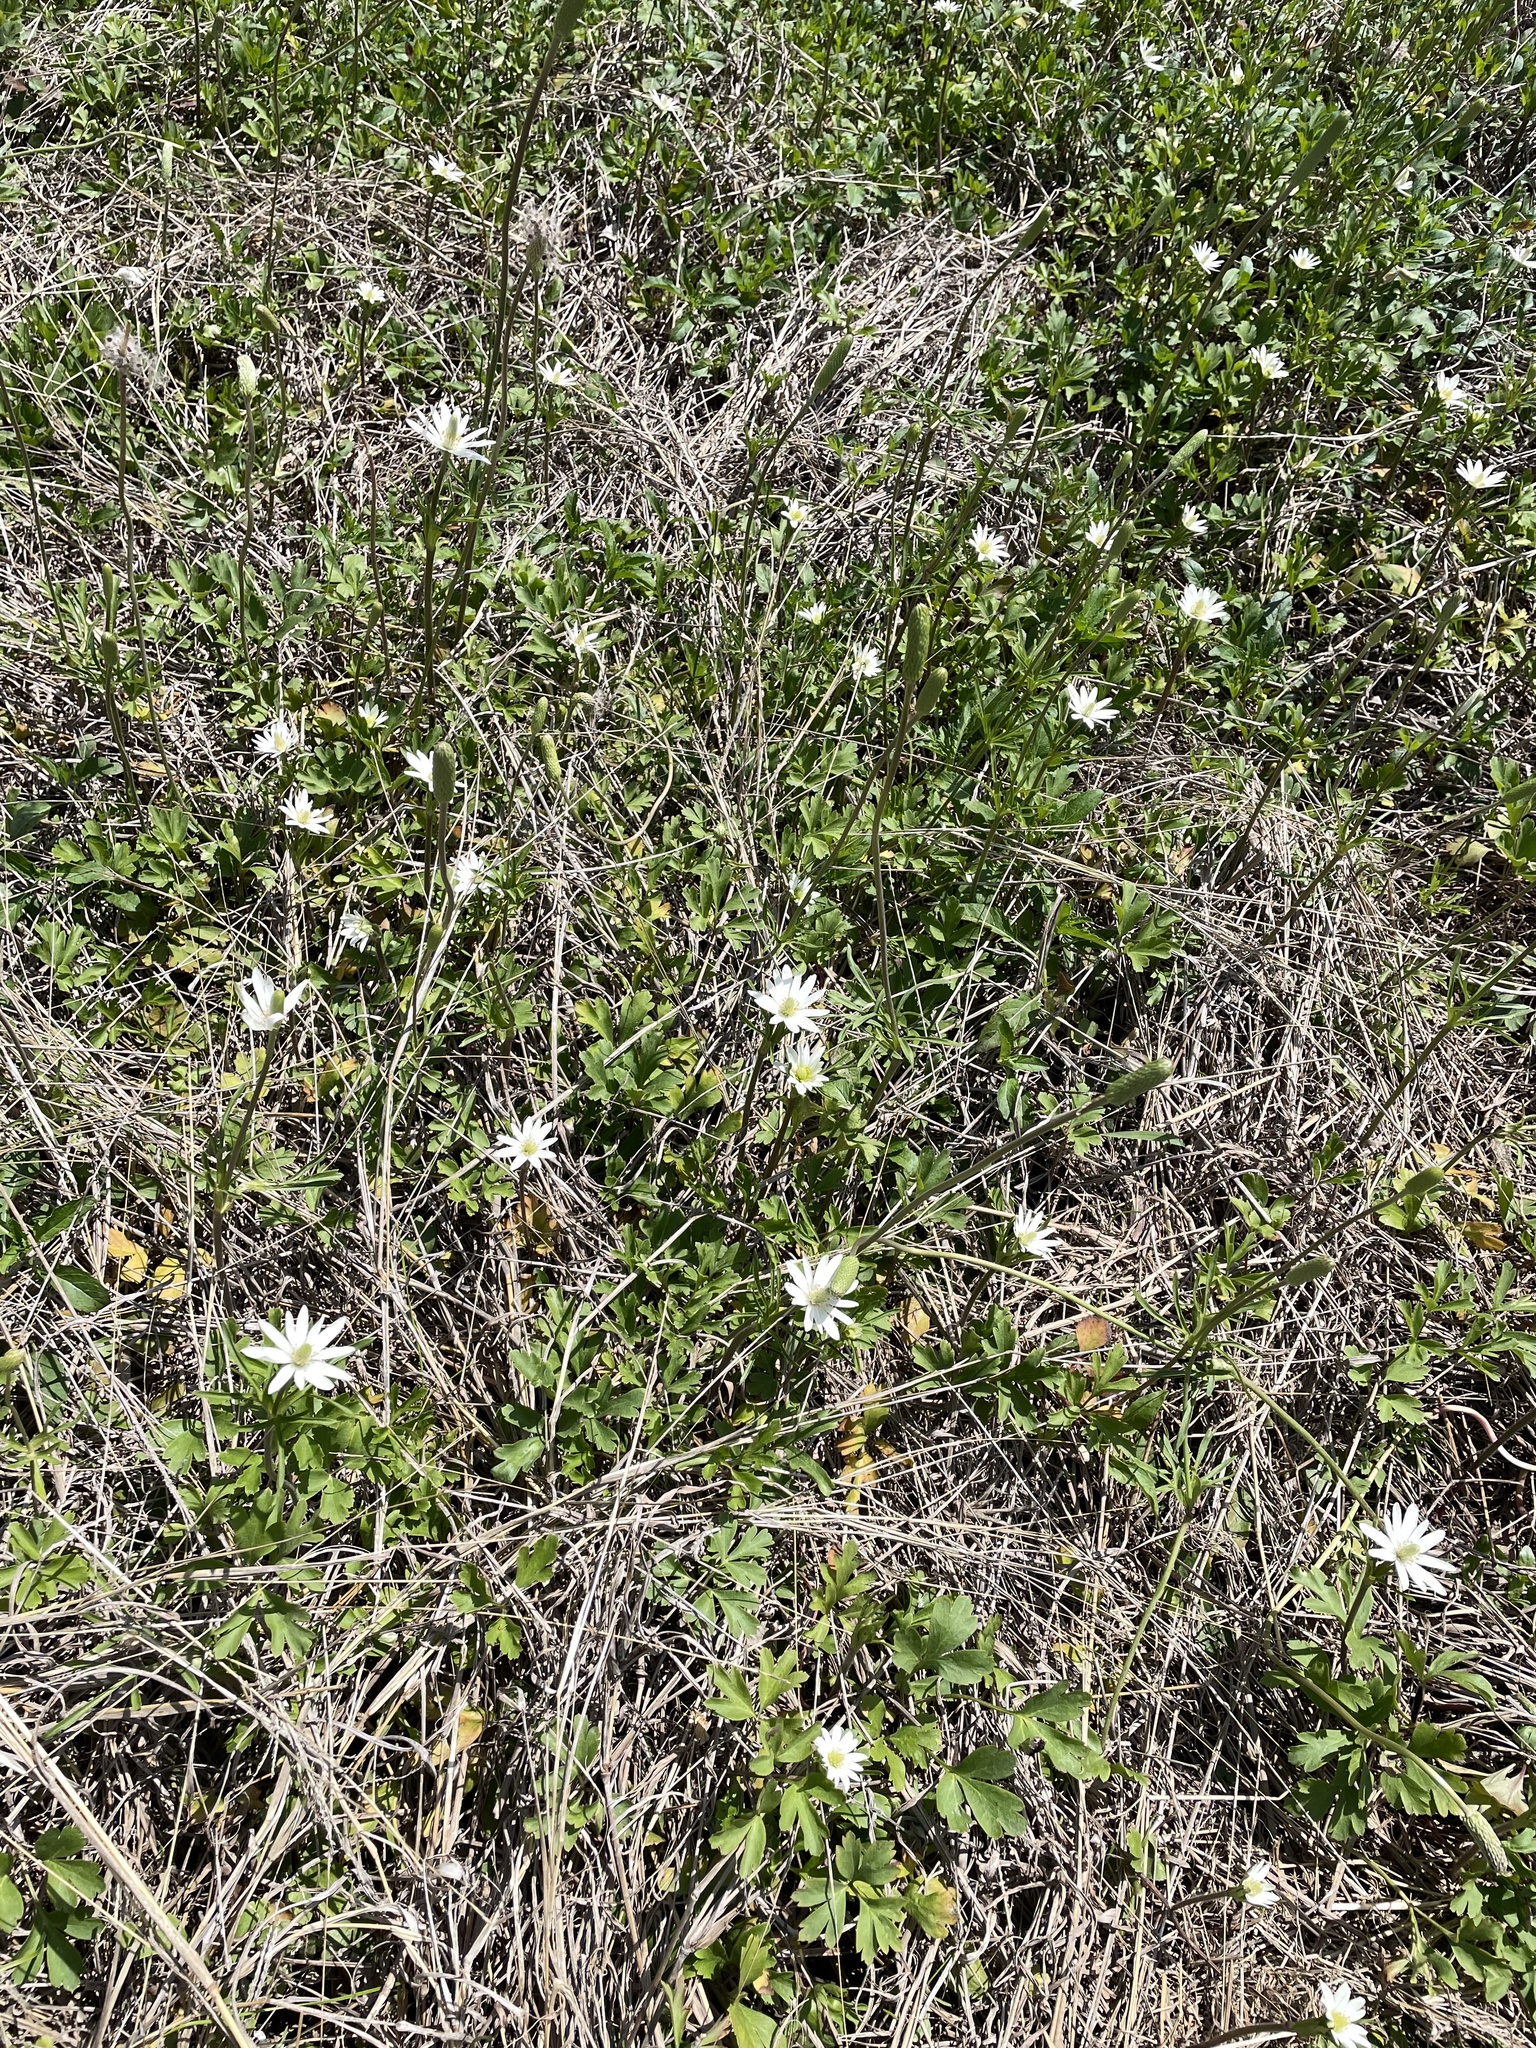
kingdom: Plantae
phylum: Tracheophyta
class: Magnoliopsida
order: Ranunculales
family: Ranunculaceae
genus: Anemone
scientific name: Anemone berlandieri
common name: Ten-petal anemone
